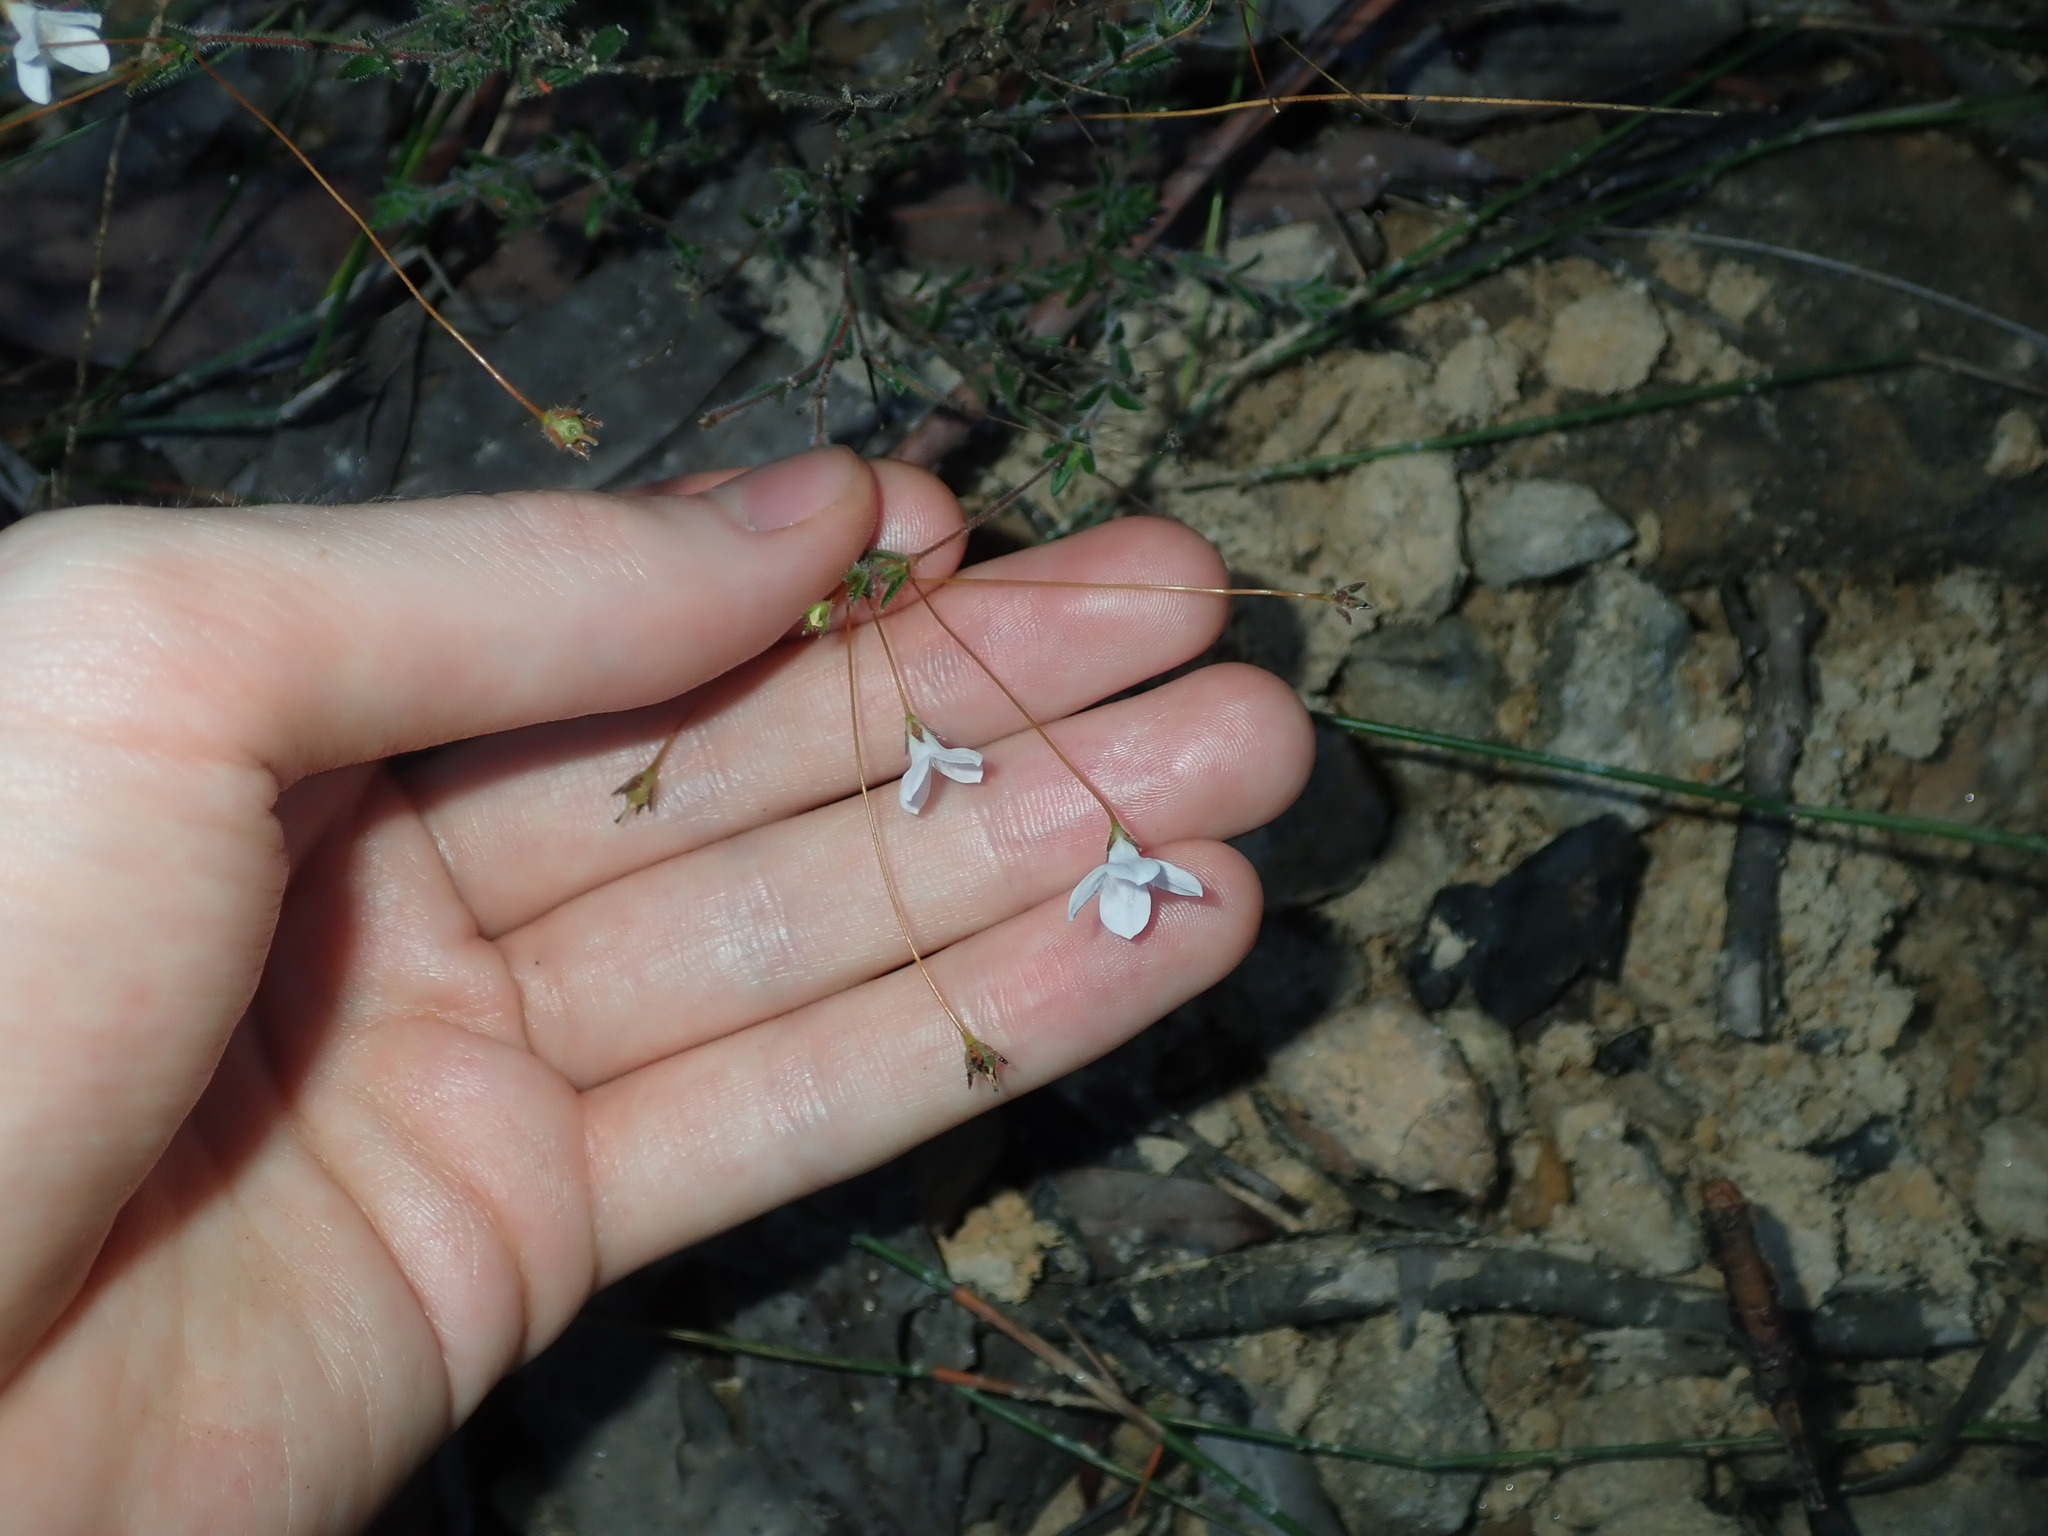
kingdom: Plantae
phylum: Tracheophyta
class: Magnoliopsida
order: Gentianales
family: Loganiaceae
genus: Mitrasacme
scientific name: Mitrasacme polymorpha
